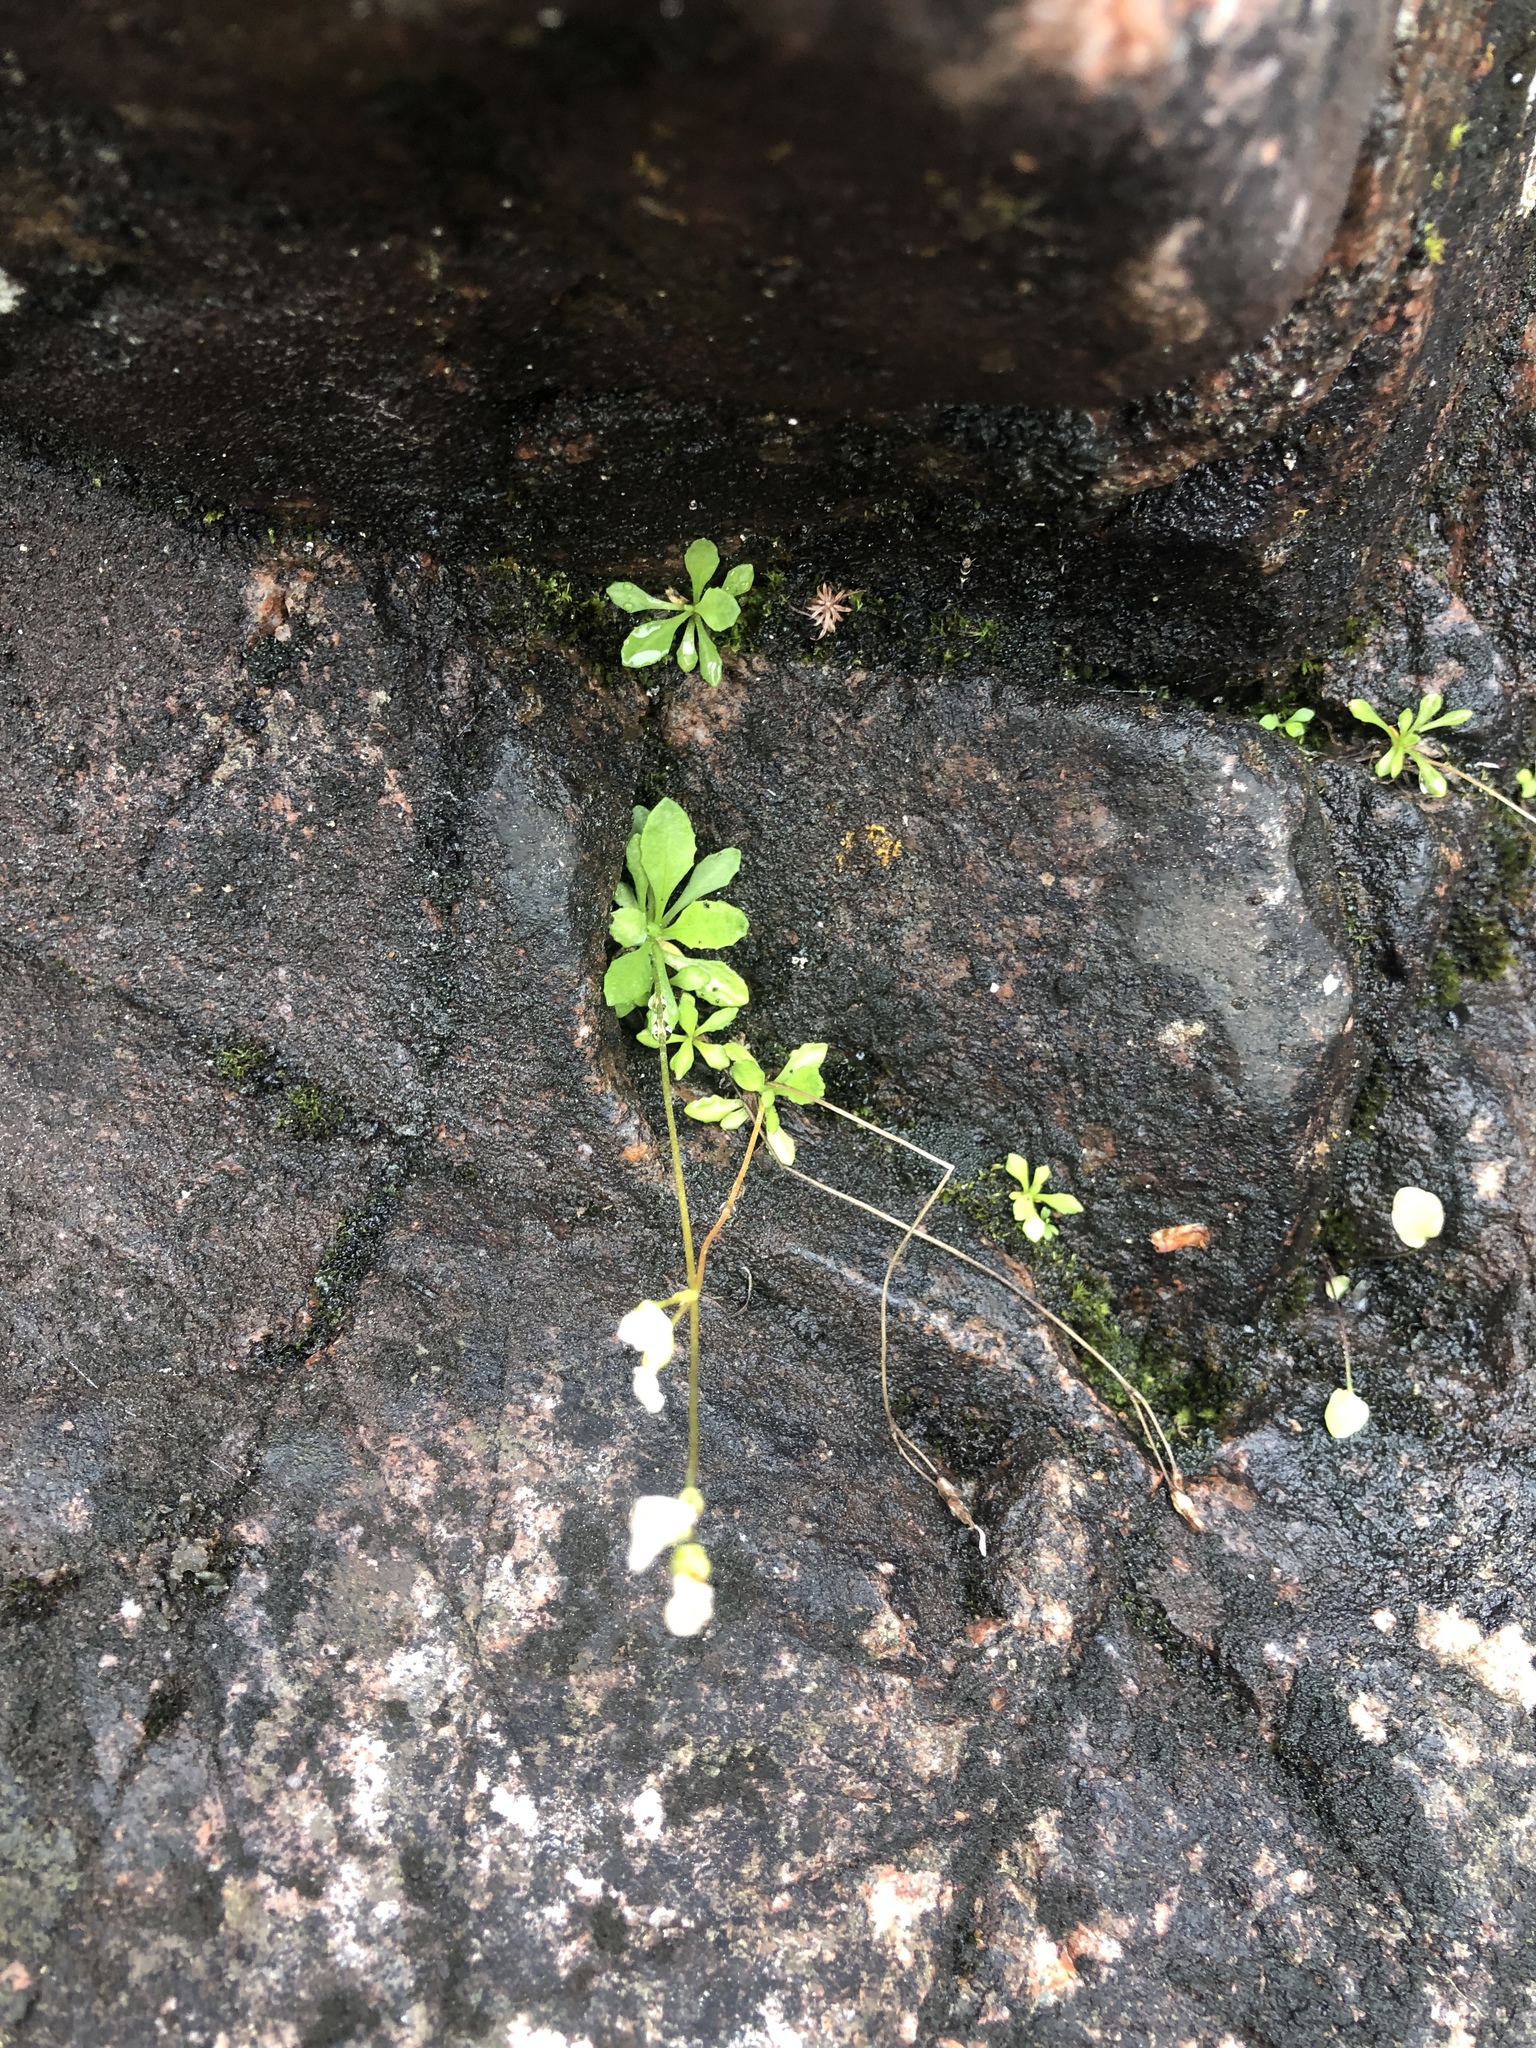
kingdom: Plantae
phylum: Tracheophyta
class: Magnoliopsida
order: Ericales
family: Primulaceae
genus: Primula
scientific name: Primula mistassinica
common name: Bird's-eye primrose
